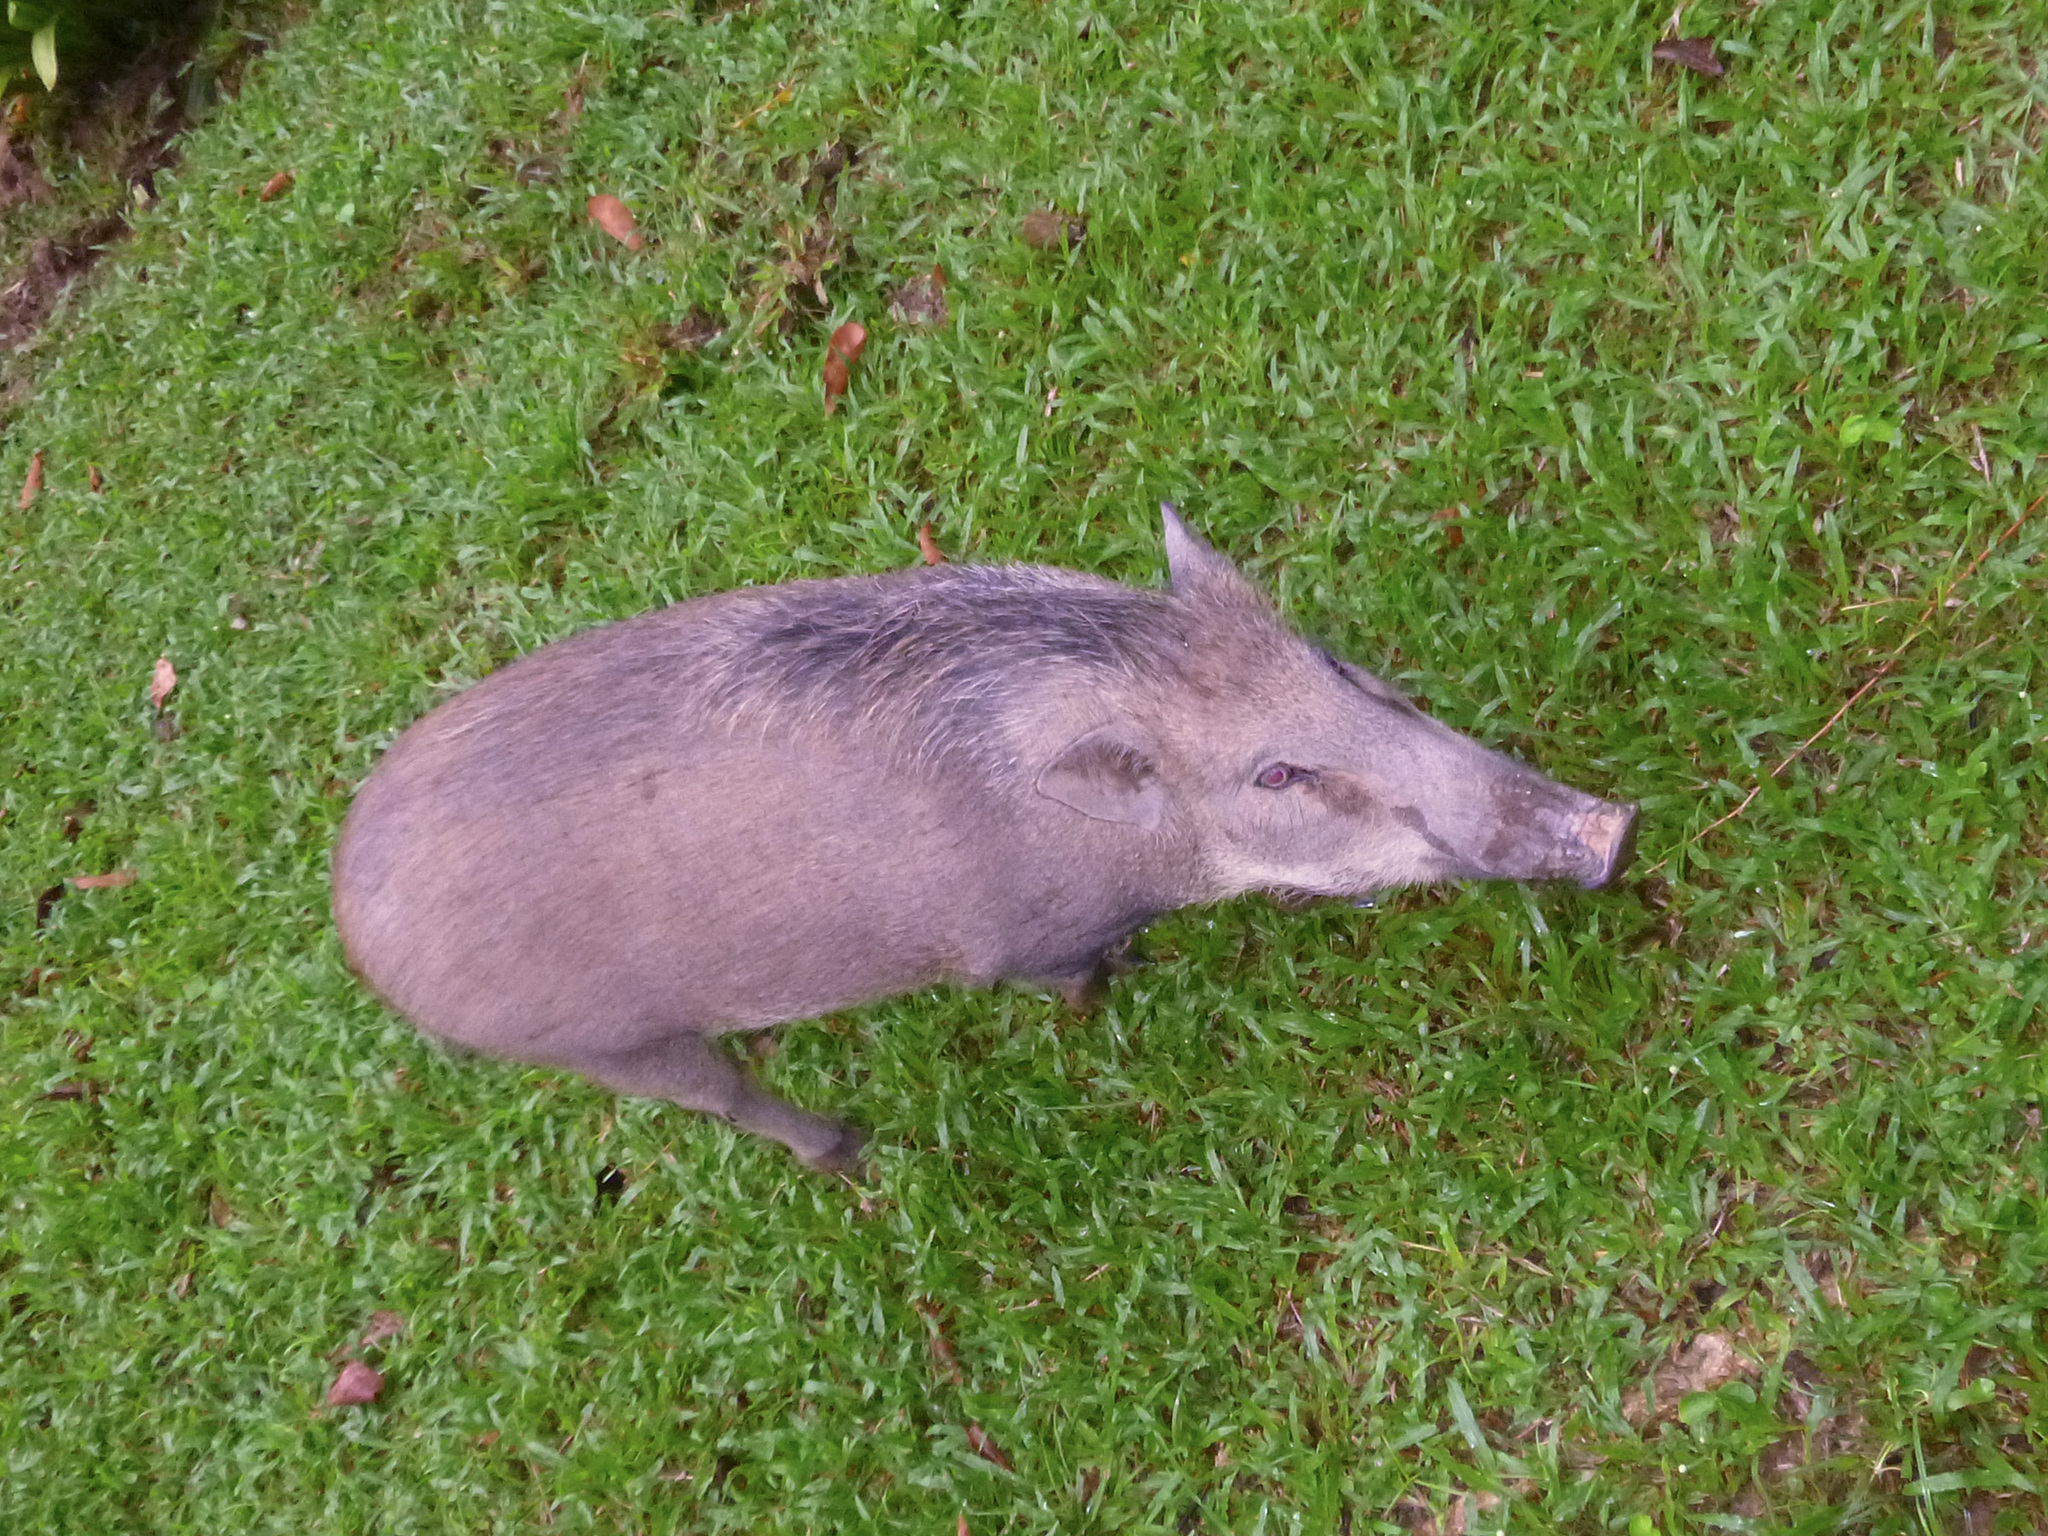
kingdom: Animalia
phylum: Chordata
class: Mammalia
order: Artiodactyla
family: Suidae
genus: Sus
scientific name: Sus scrofa
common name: Wild boar
